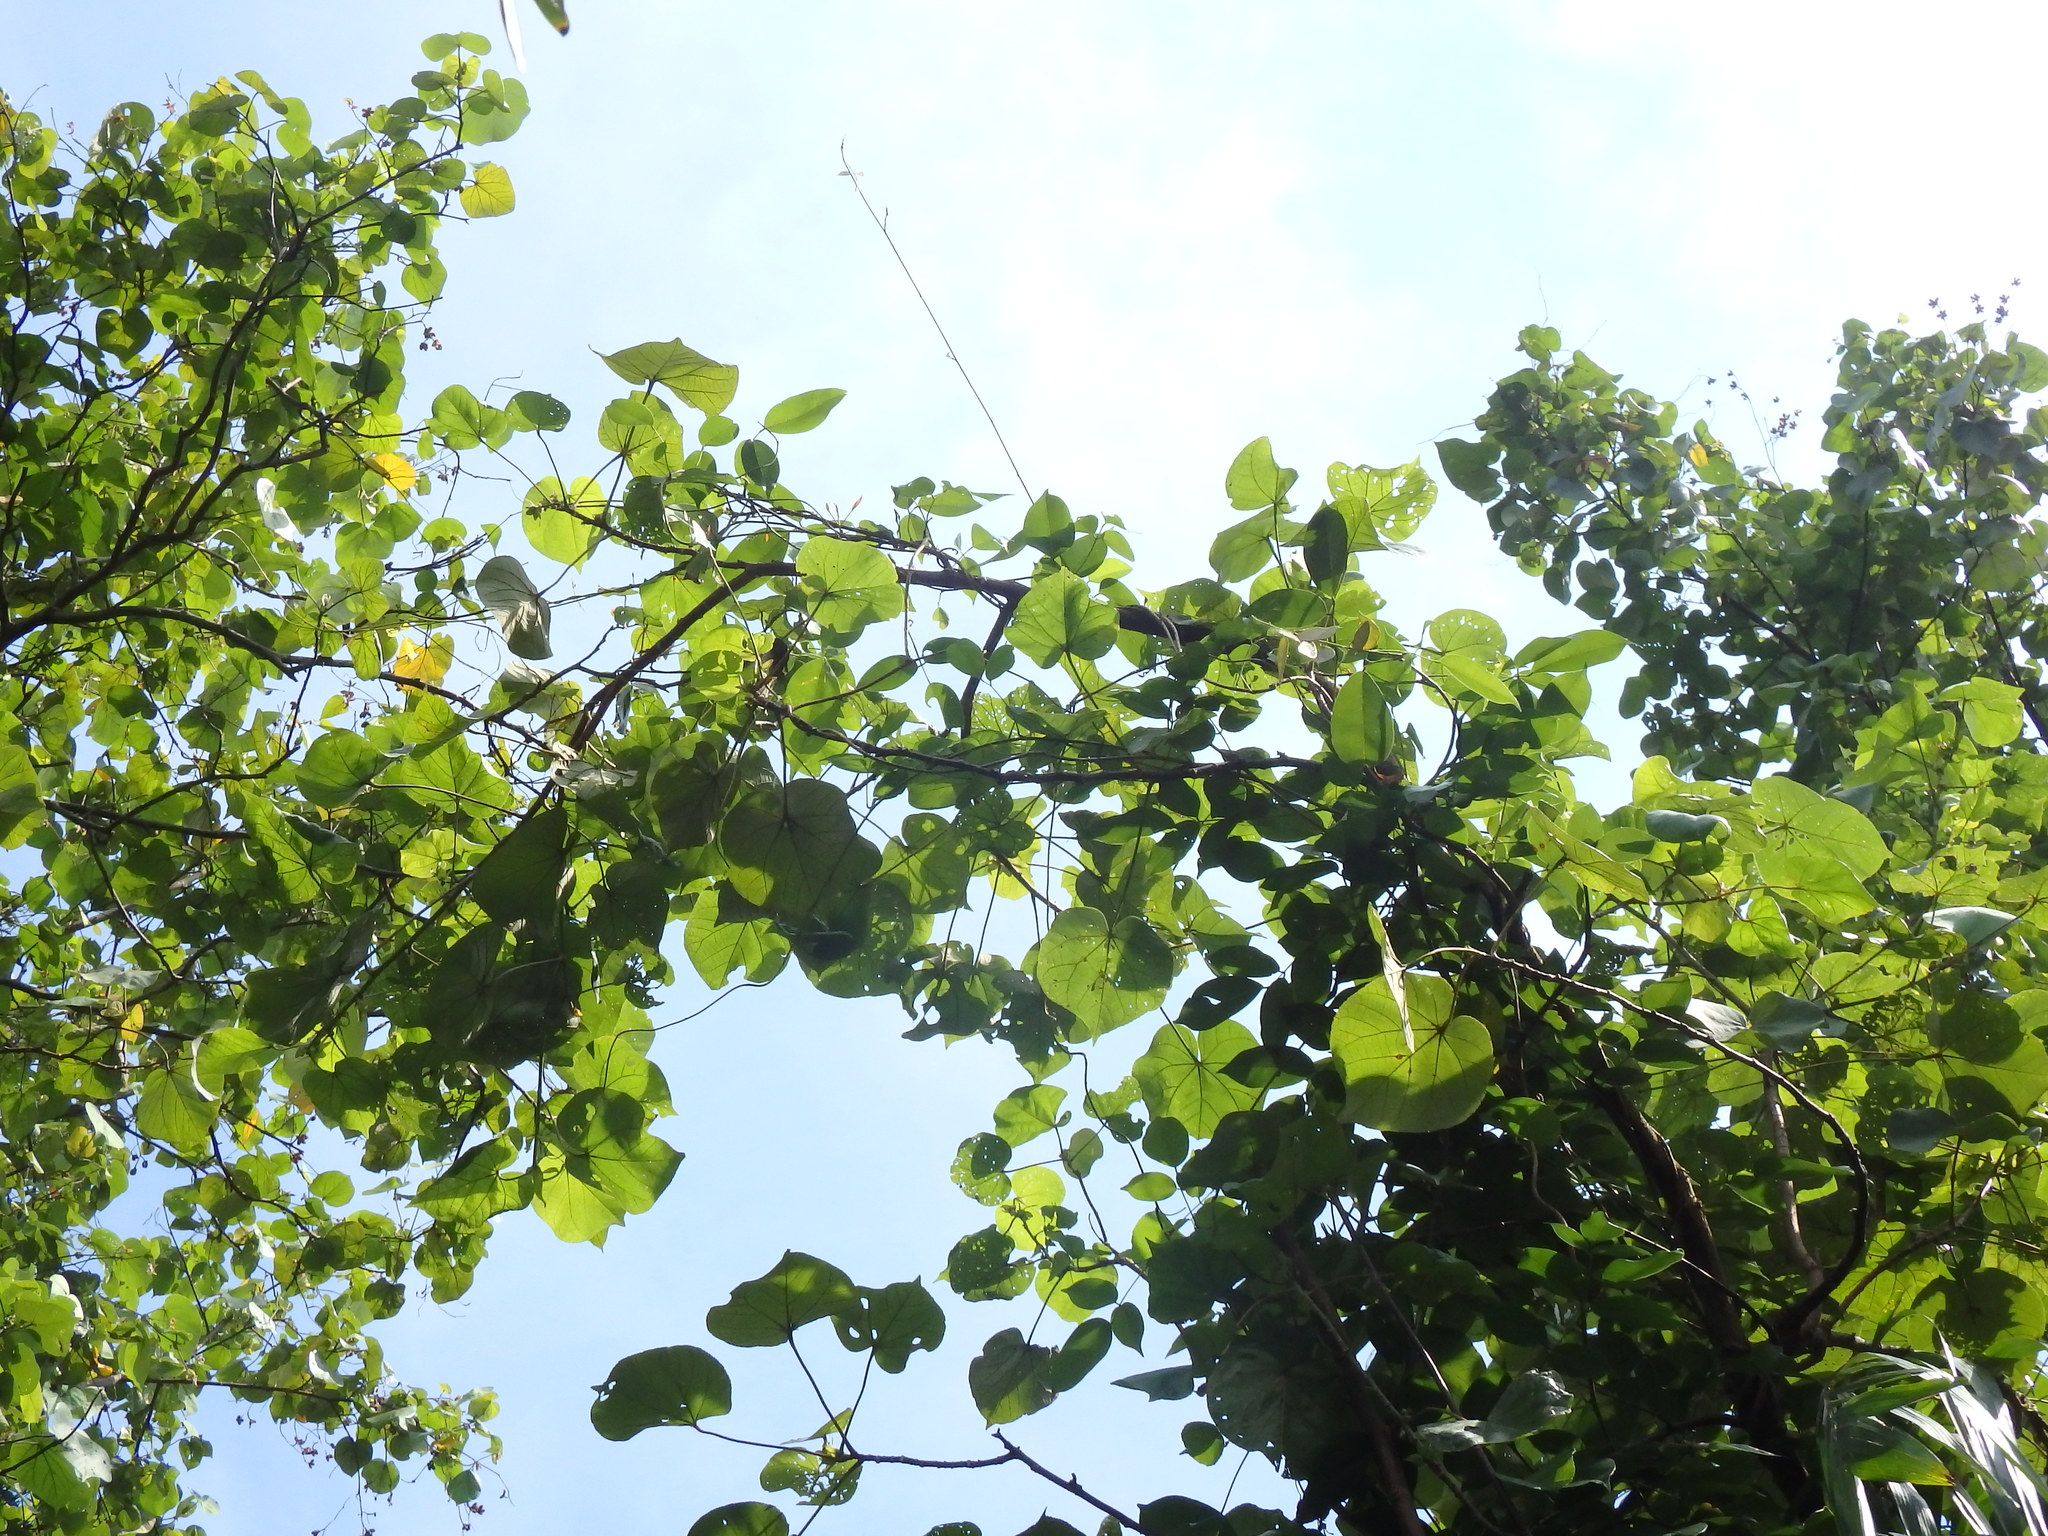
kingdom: Plantae
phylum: Tracheophyta
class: Magnoliopsida
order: Malvales
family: Malvaceae
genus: Talipariti
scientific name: Talipariti tiliaceum
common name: Sea hibiscus
